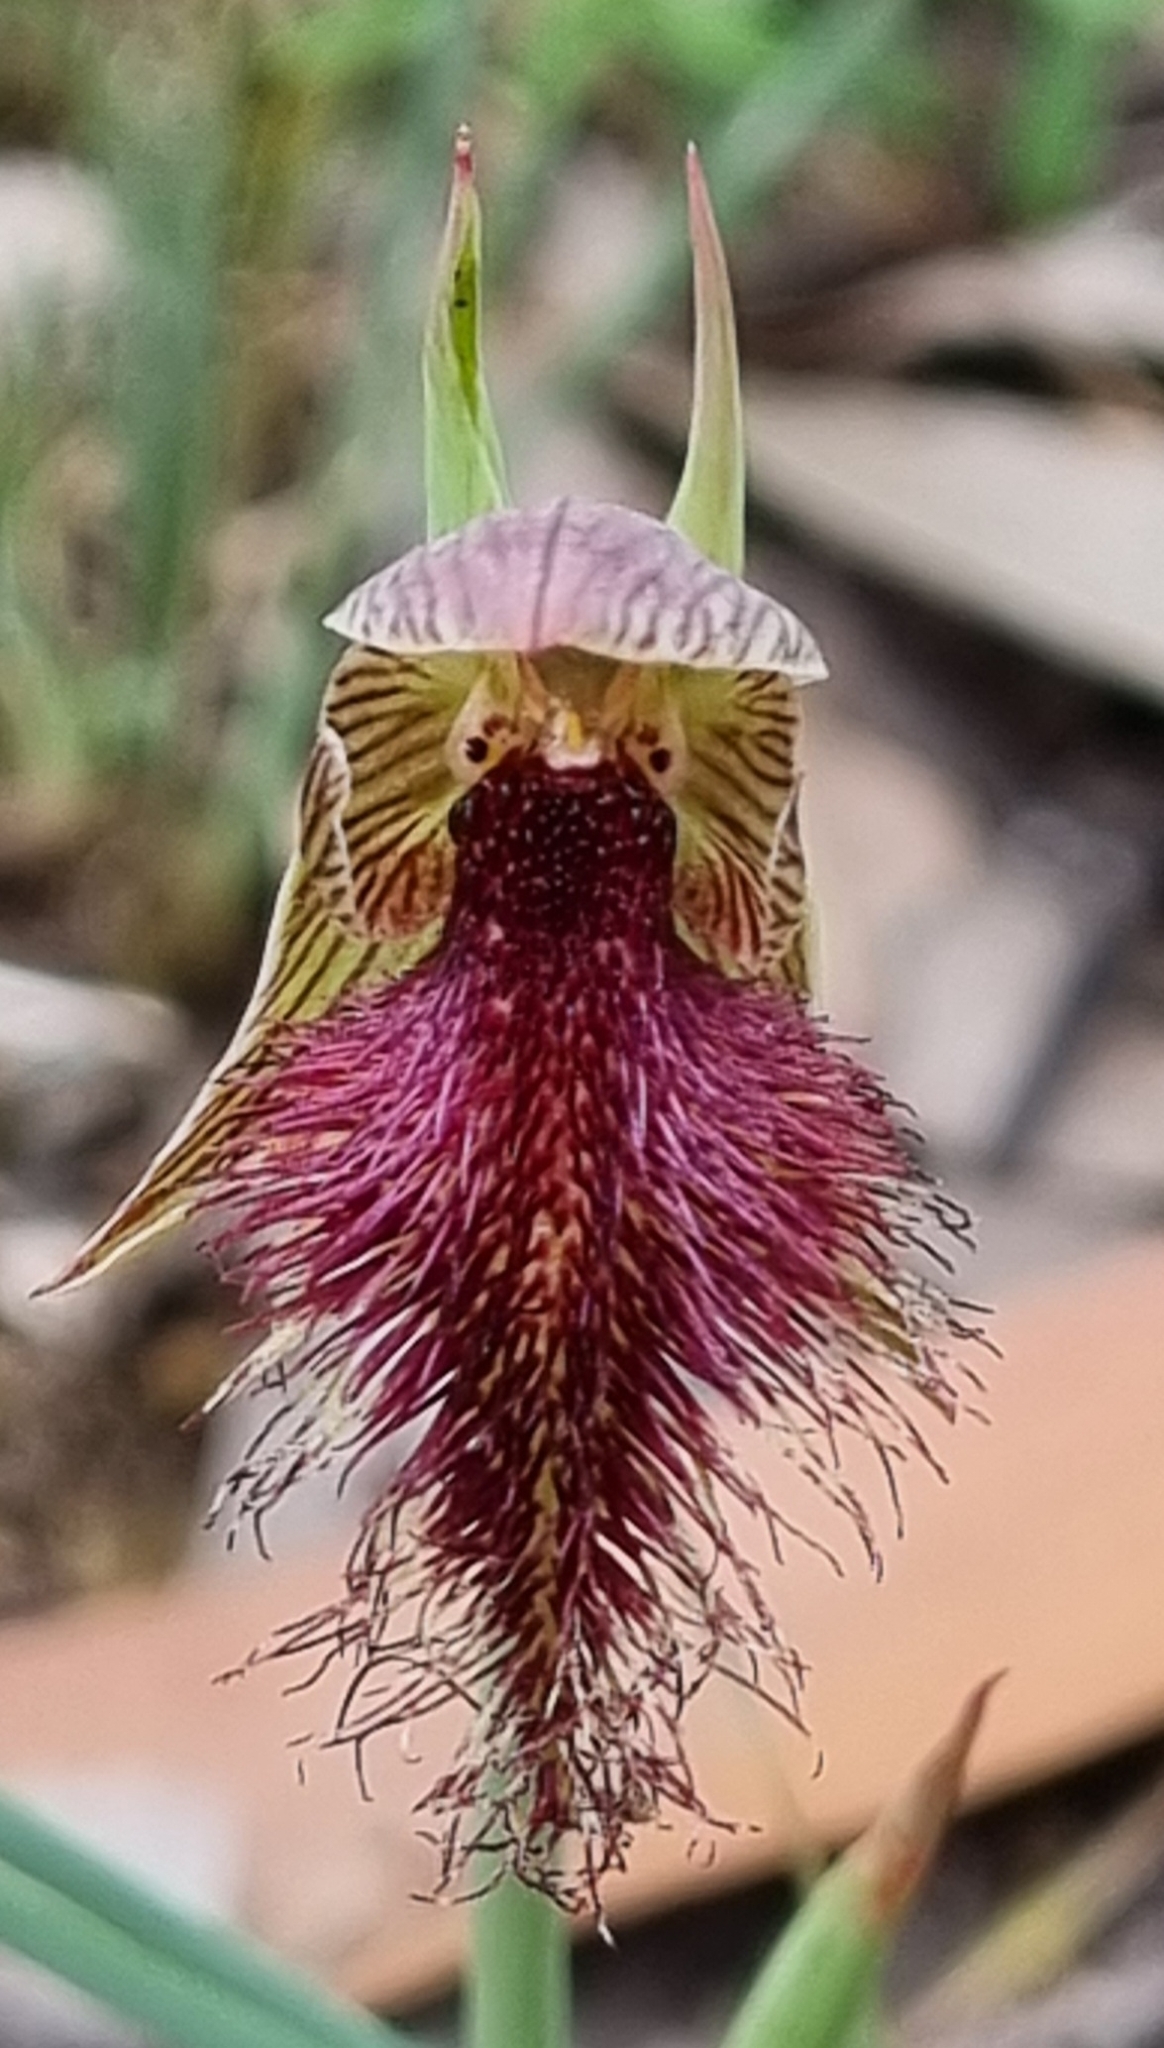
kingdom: Plantae
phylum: Tracheophyta
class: Liliopsida
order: Asparagales
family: Orchidaceae
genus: Calochilus
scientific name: Calochilus robertsonii
